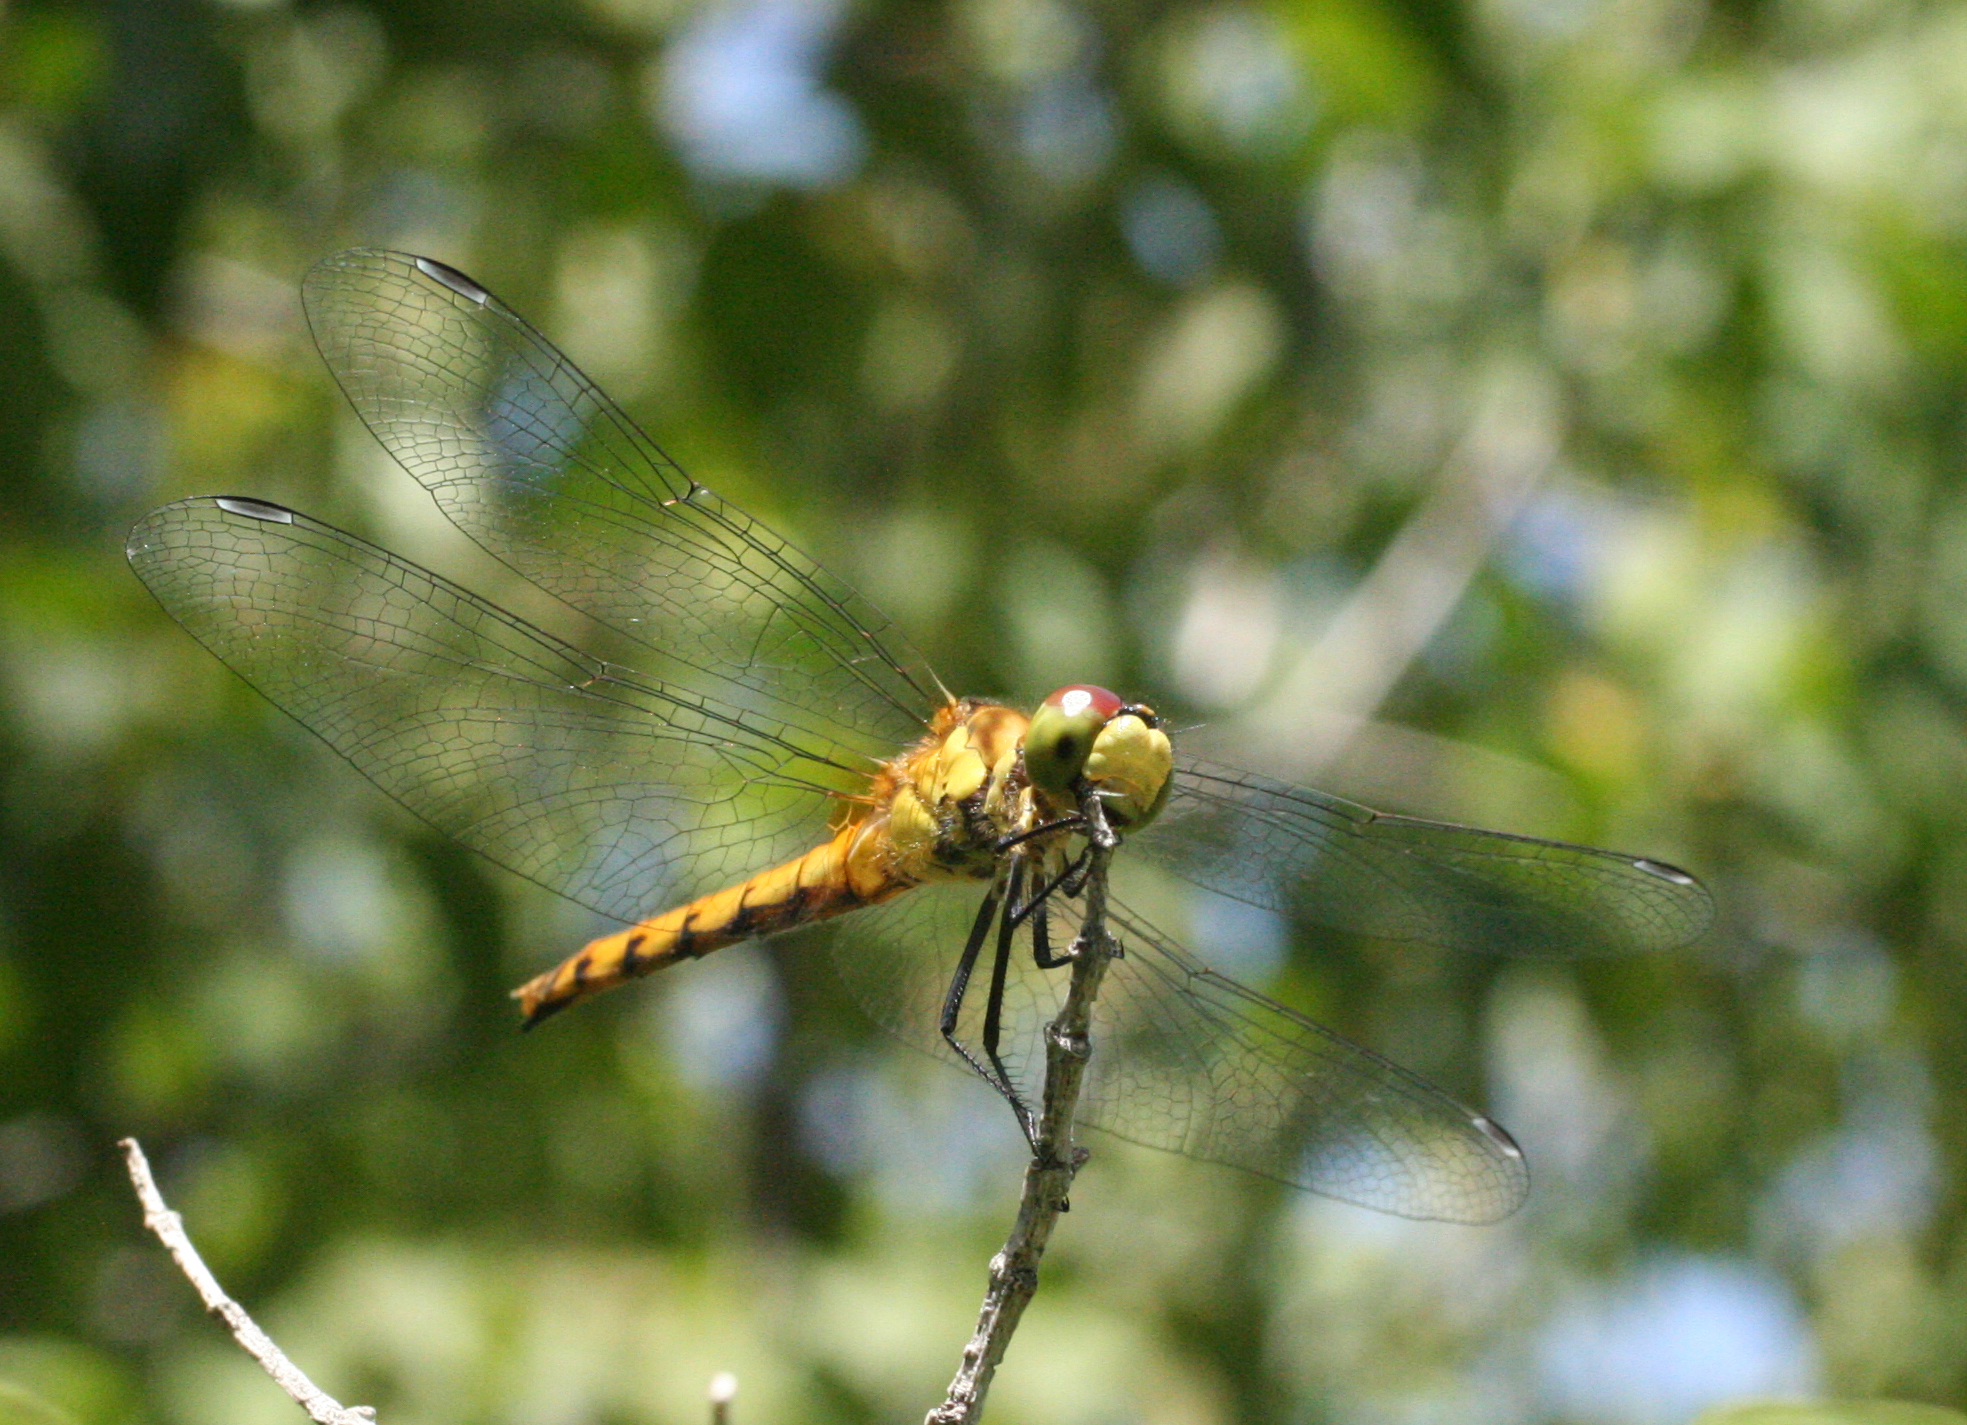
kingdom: Animalia
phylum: Arthropoda
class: Insecta
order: Odonata
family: Libellulidae
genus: Sympetrum
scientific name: Sympetrum cordulegaster
